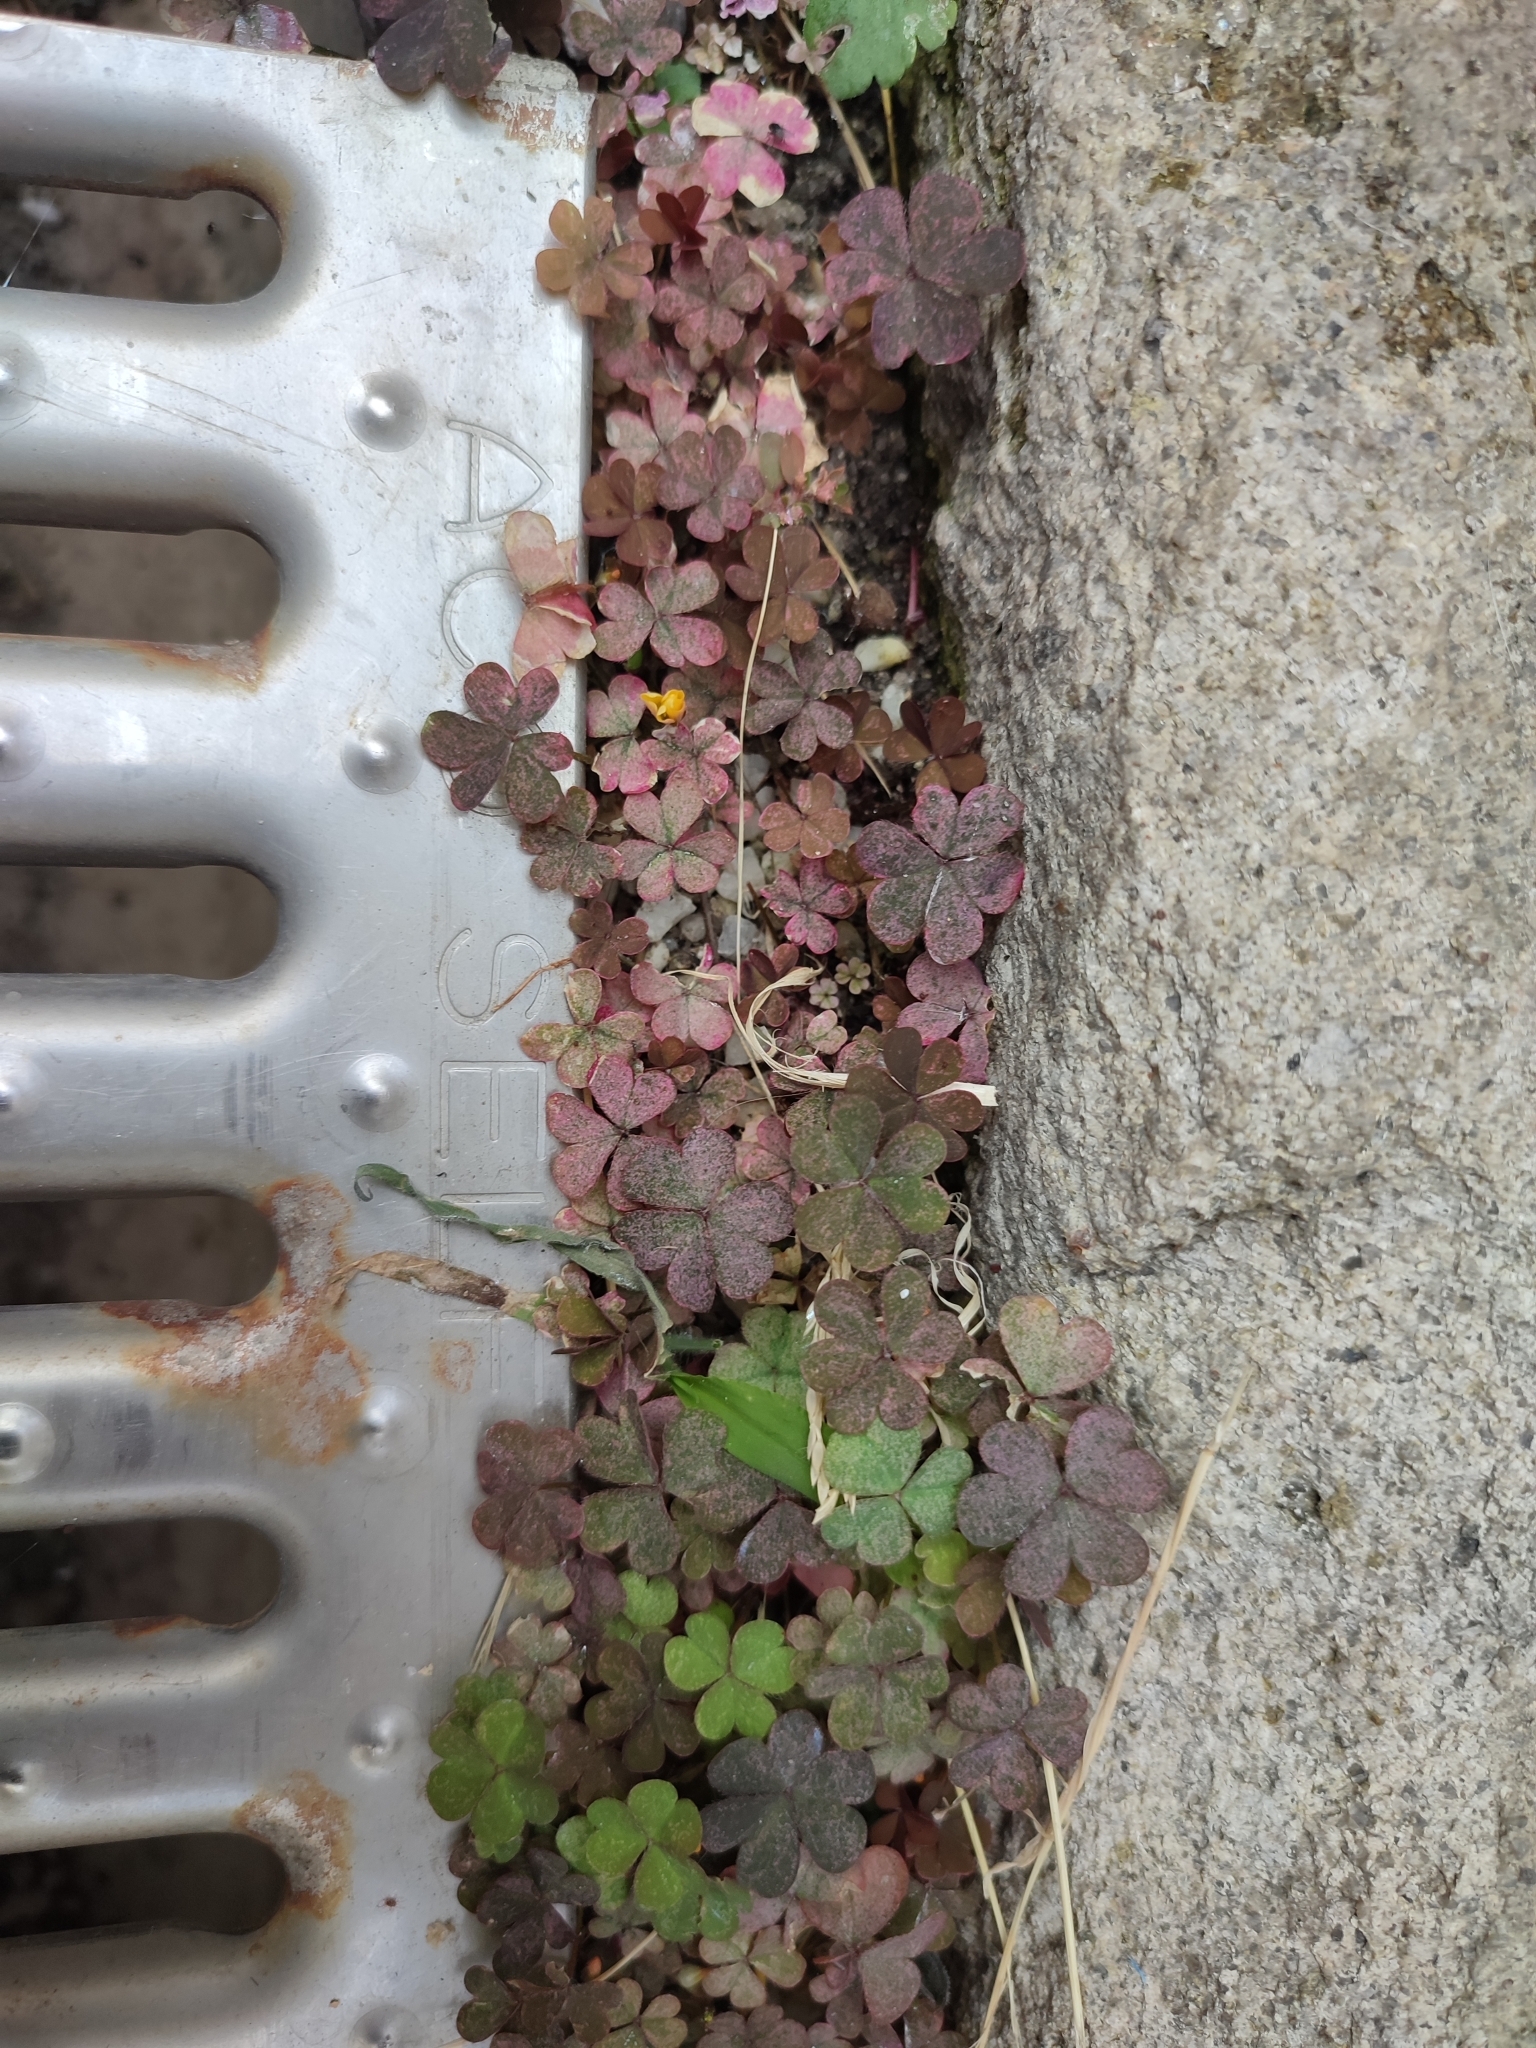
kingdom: Plantae
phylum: Tracheophyta
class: Magnoliopsida
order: Oxalidales
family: Oxalidaceae
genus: Oxalis
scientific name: Oxalis corniculata
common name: Procumbent yellow-sorrel
